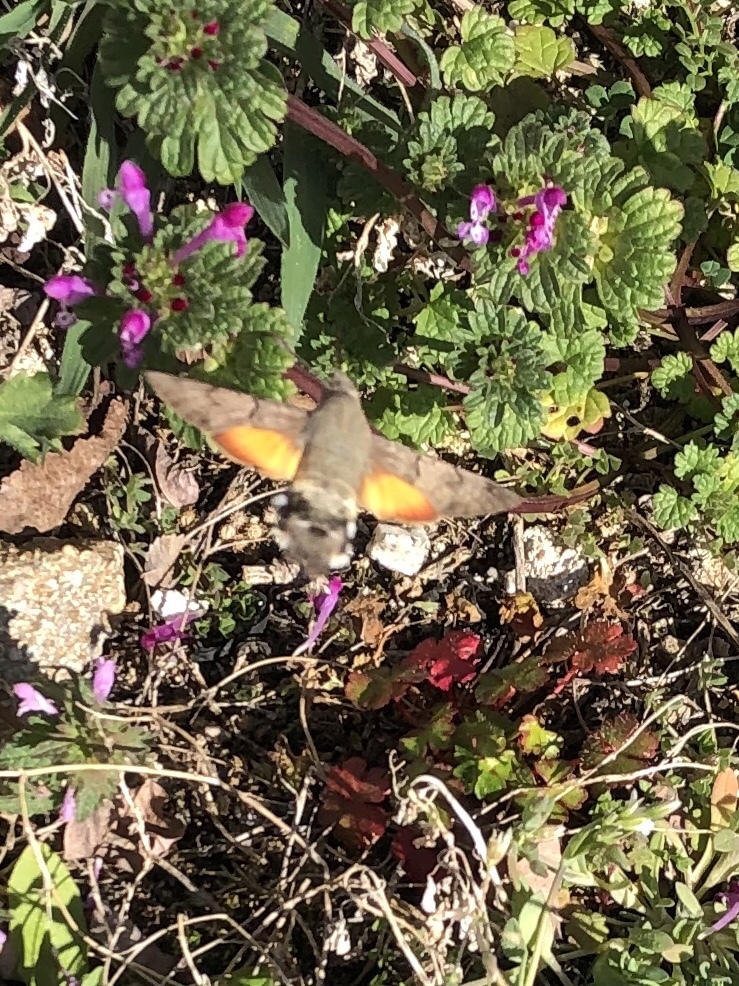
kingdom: Animalia
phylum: Arthropoda
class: Insecta
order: Lepidoptera
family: Sphingidae
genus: Macroglossum
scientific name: Macroglossum stellatarum
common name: Humming-bird hawk-moth
